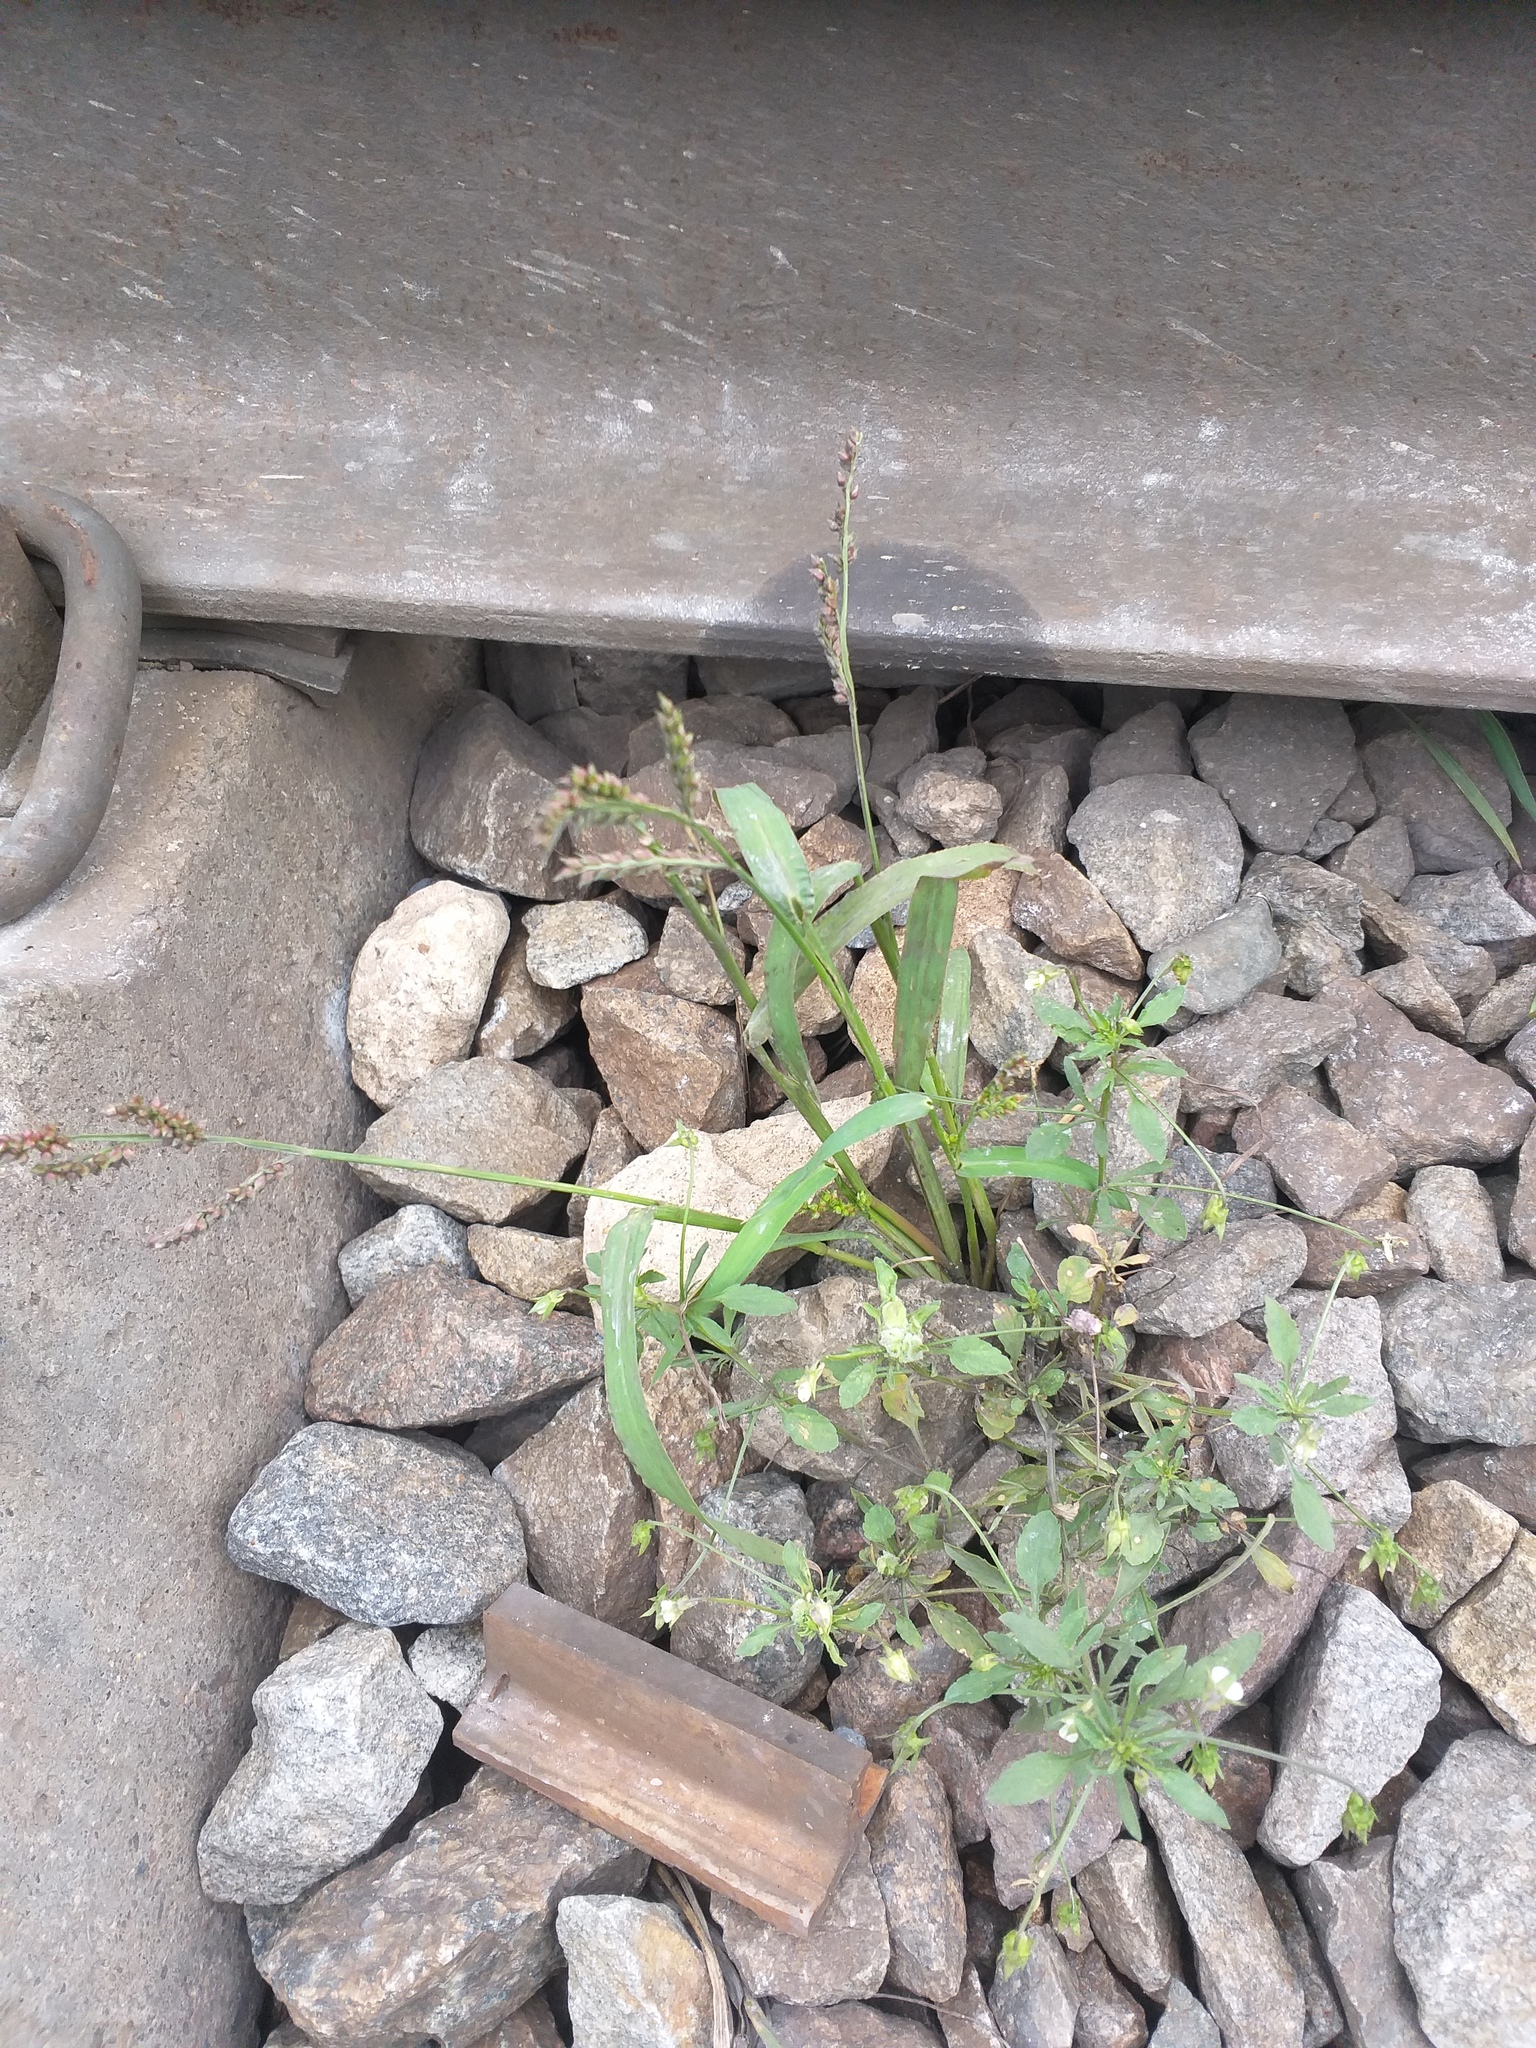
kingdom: Plantae
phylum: Tracheophyta
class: Liliopsida
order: Poales
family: Poaceae
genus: Echinochloa
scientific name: Echinochloa crus-galli
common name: Cockspur
